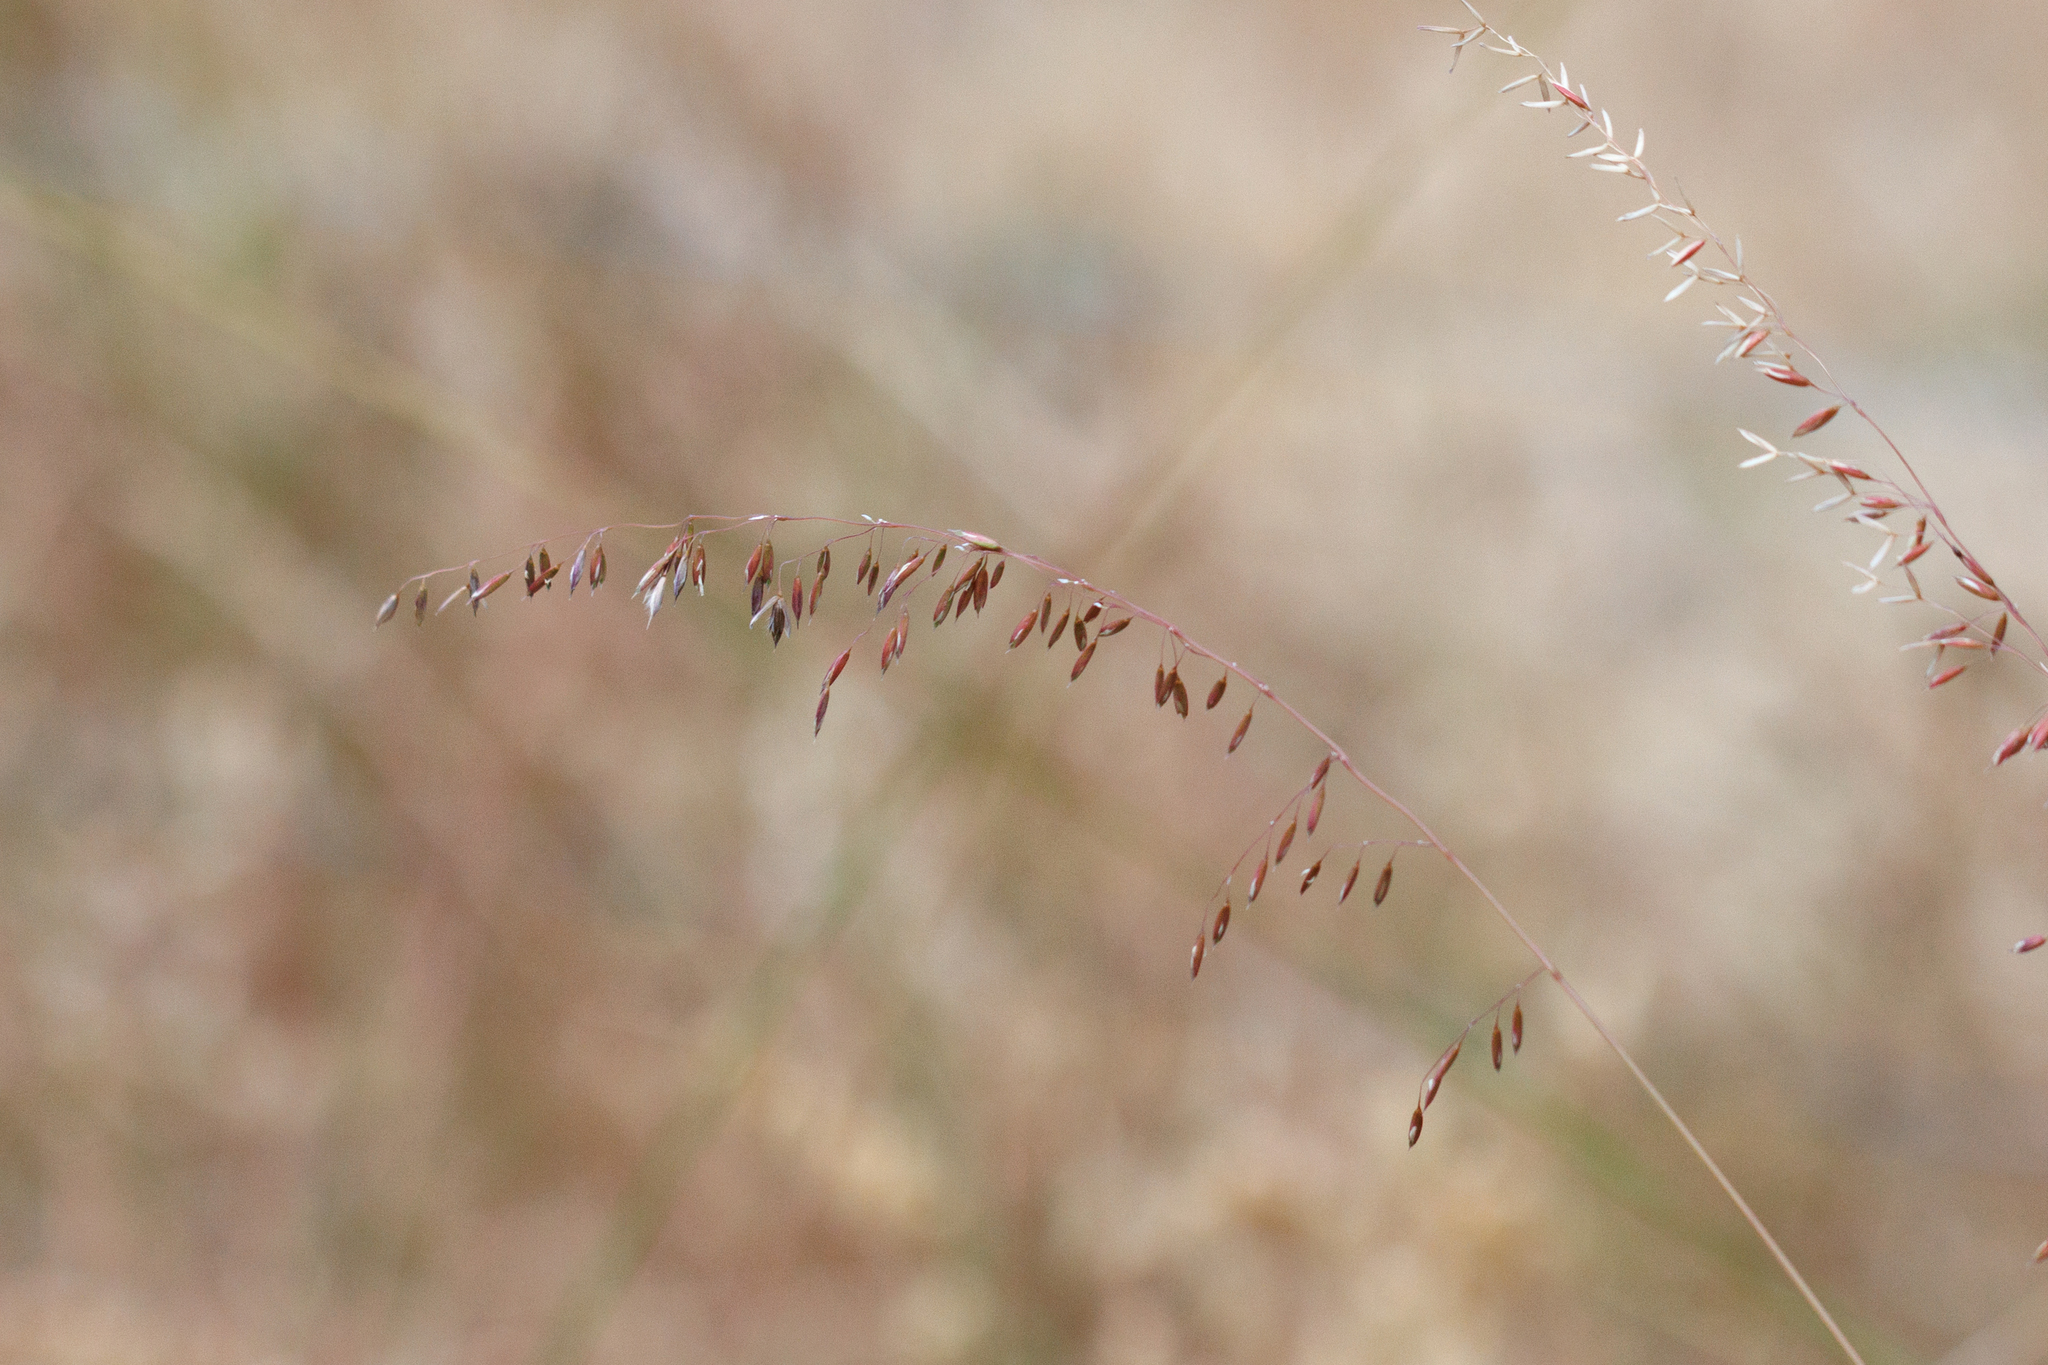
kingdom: Plantae
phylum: Tracheophyta
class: Liliopsida
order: Poales
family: Poaceae
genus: Ehrharta
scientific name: Ehrharta calycina
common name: Perennial veldtgrass
